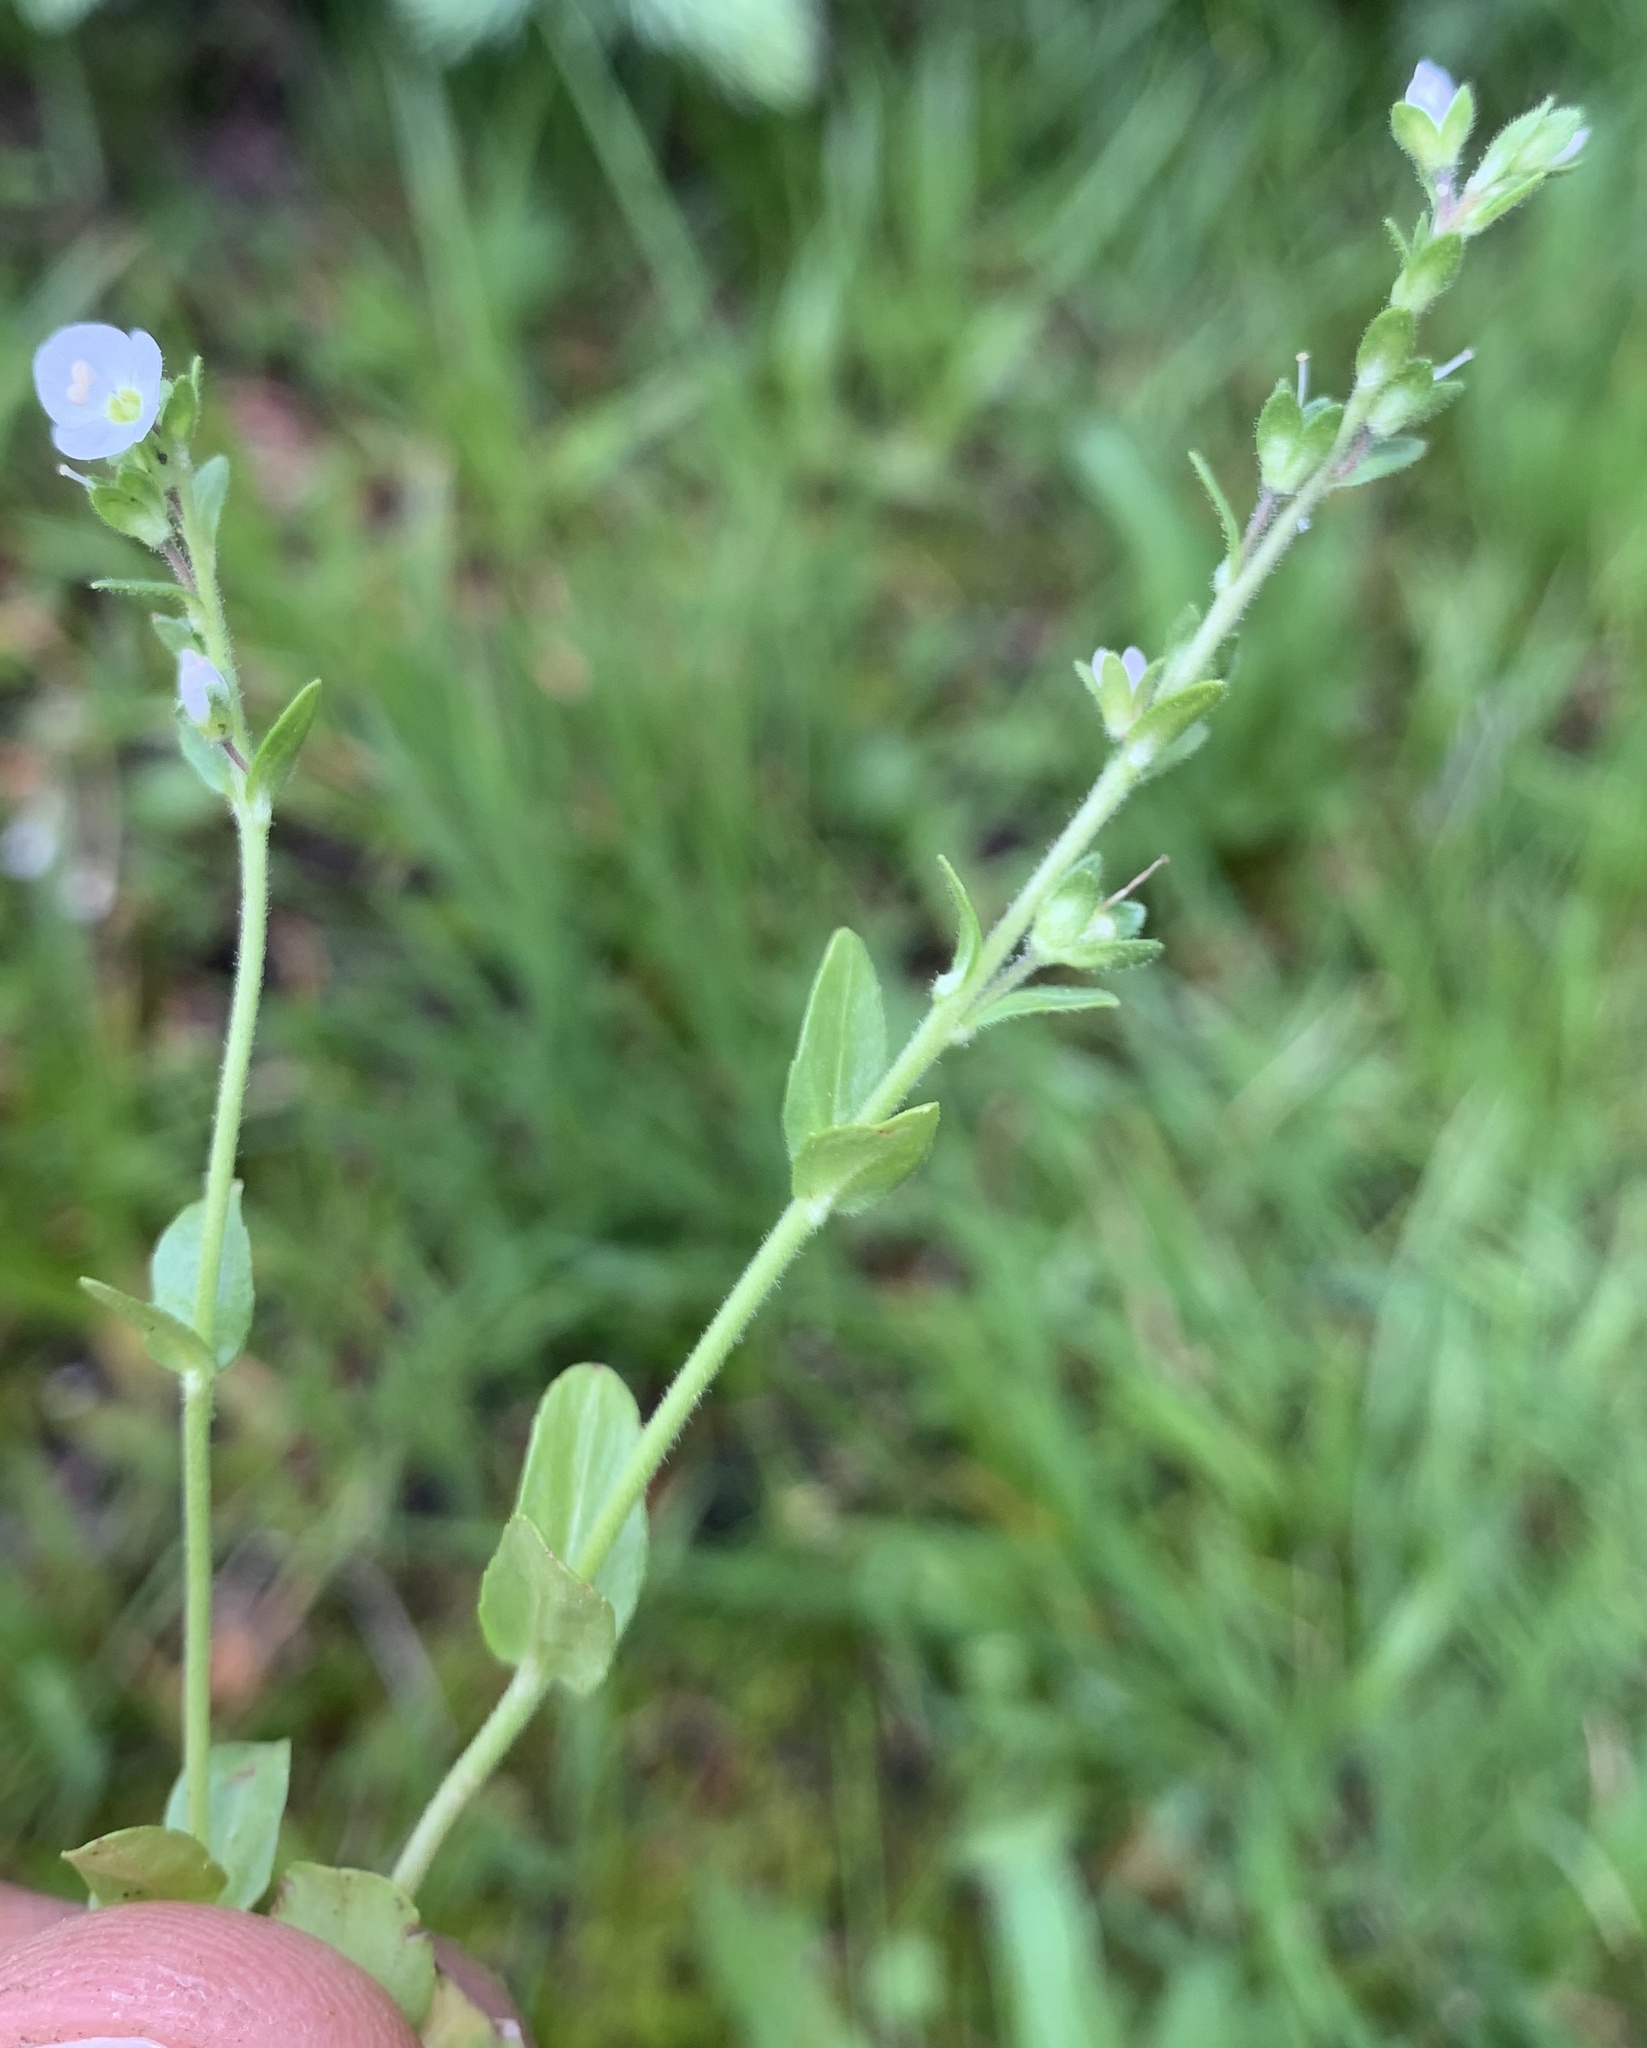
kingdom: Plantae
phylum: Tracheophyta
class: Magnoliopsida
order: Lamiales
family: Plantaginaceae
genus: Veronica
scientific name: Veronica serpyllifolia
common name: Thyme-leaved speedwell
